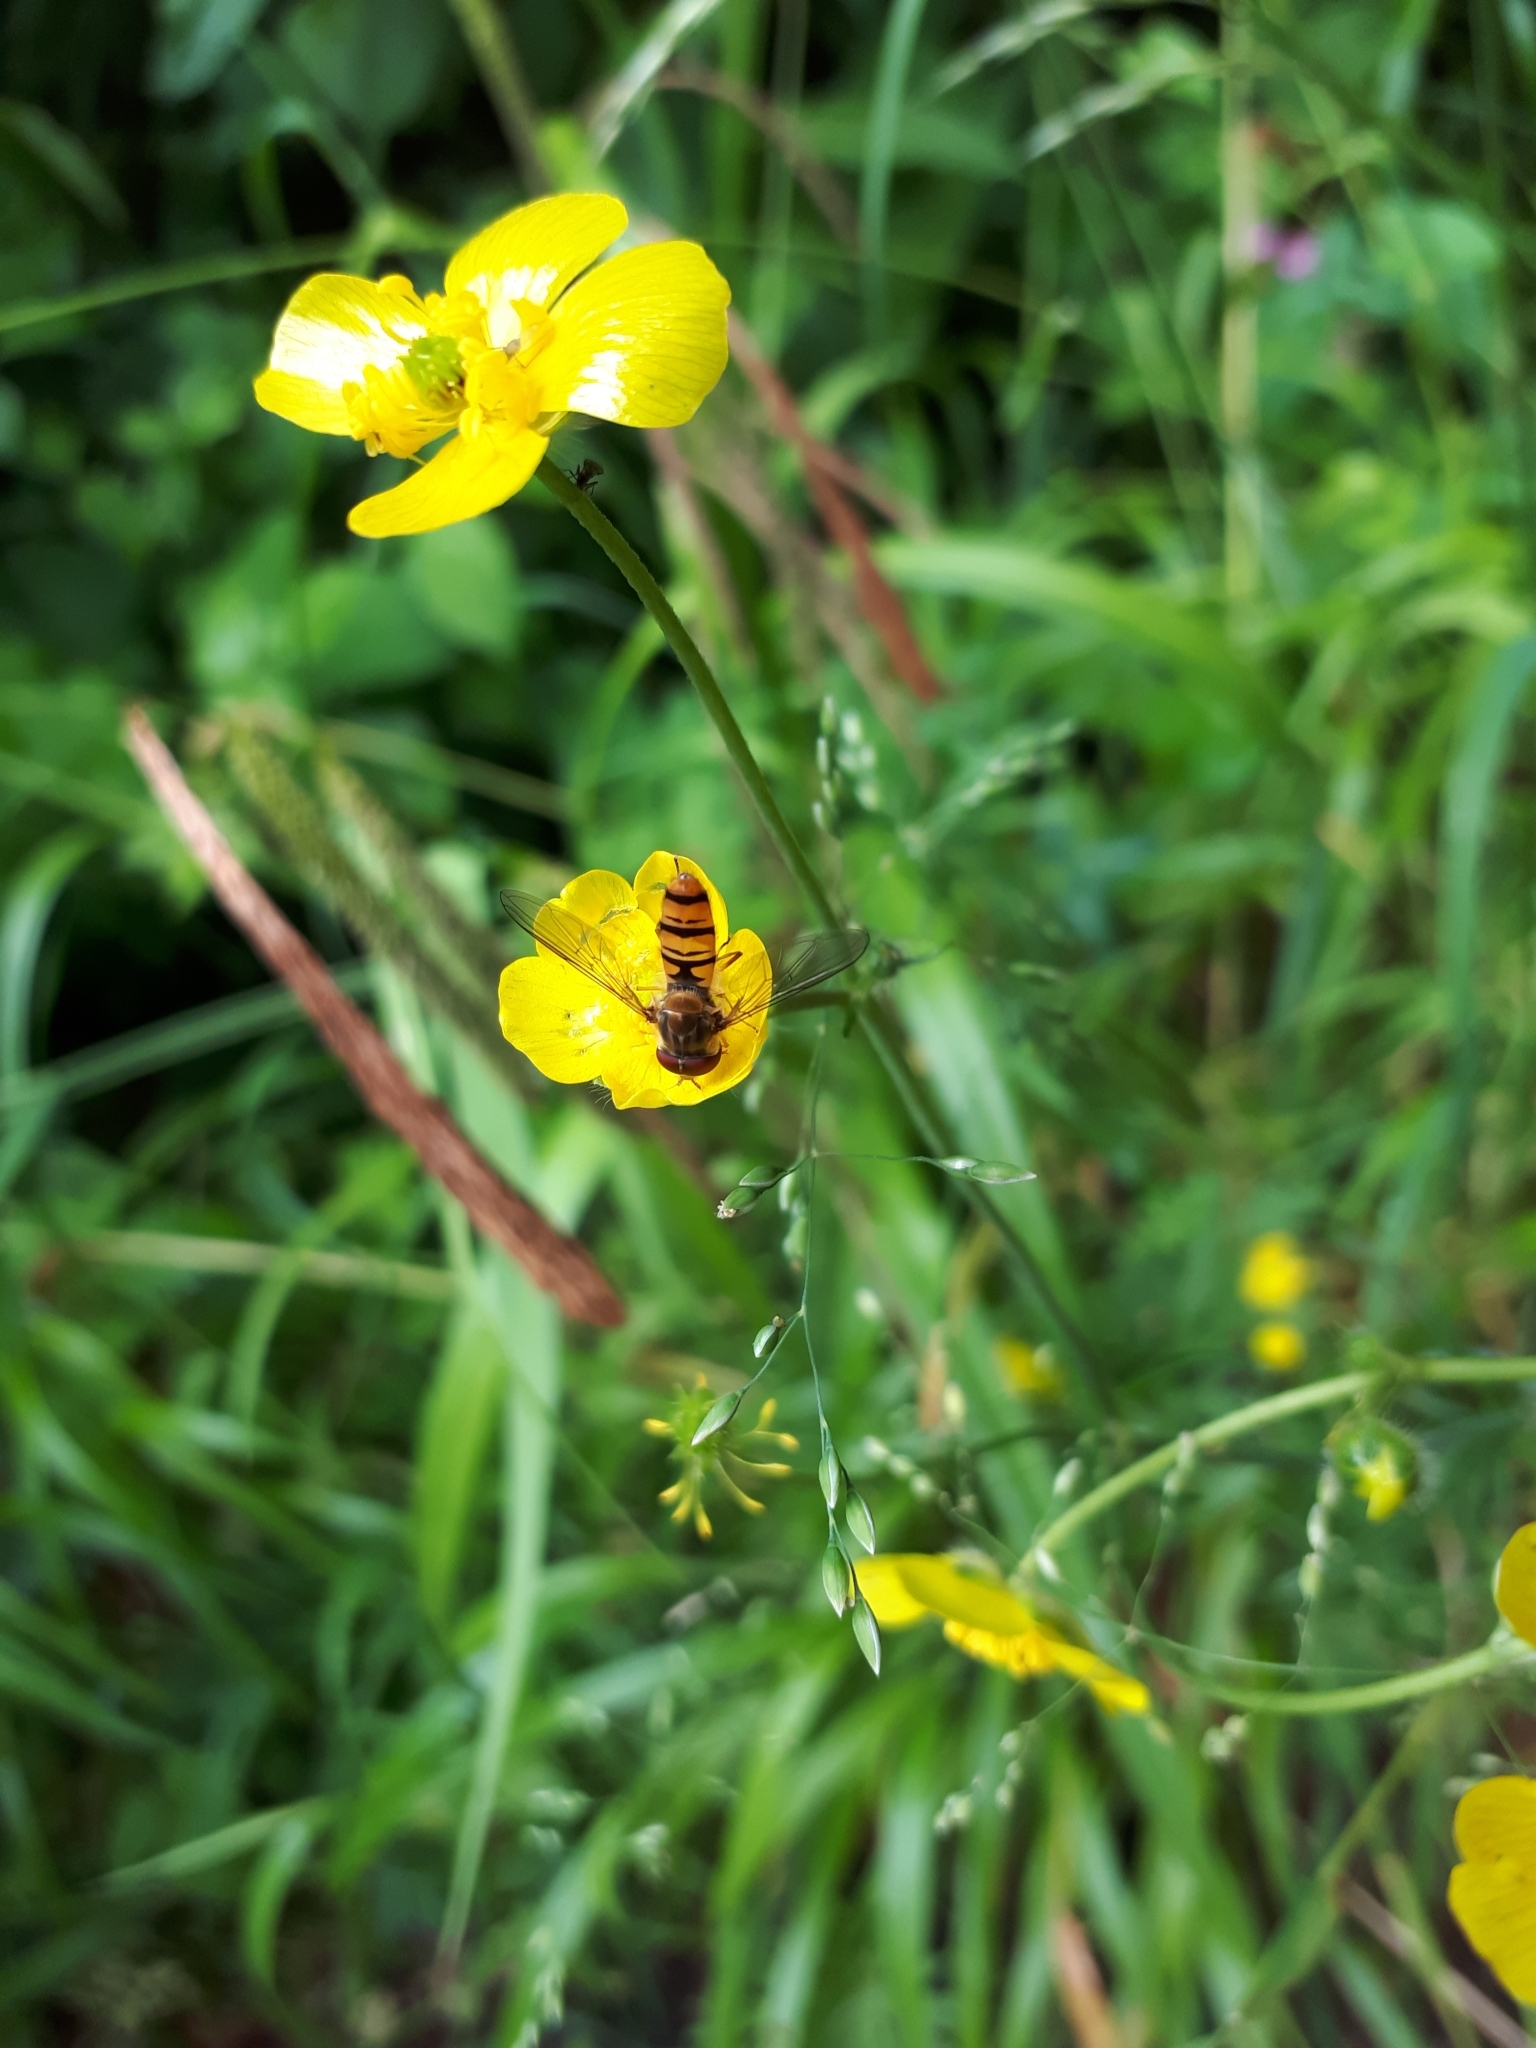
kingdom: Animalia
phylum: Arthropoda
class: Insecta
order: Diptera
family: Syrphidae
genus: Episyrphus
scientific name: Episyrphus balteatus
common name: Marmalade hoverfly
